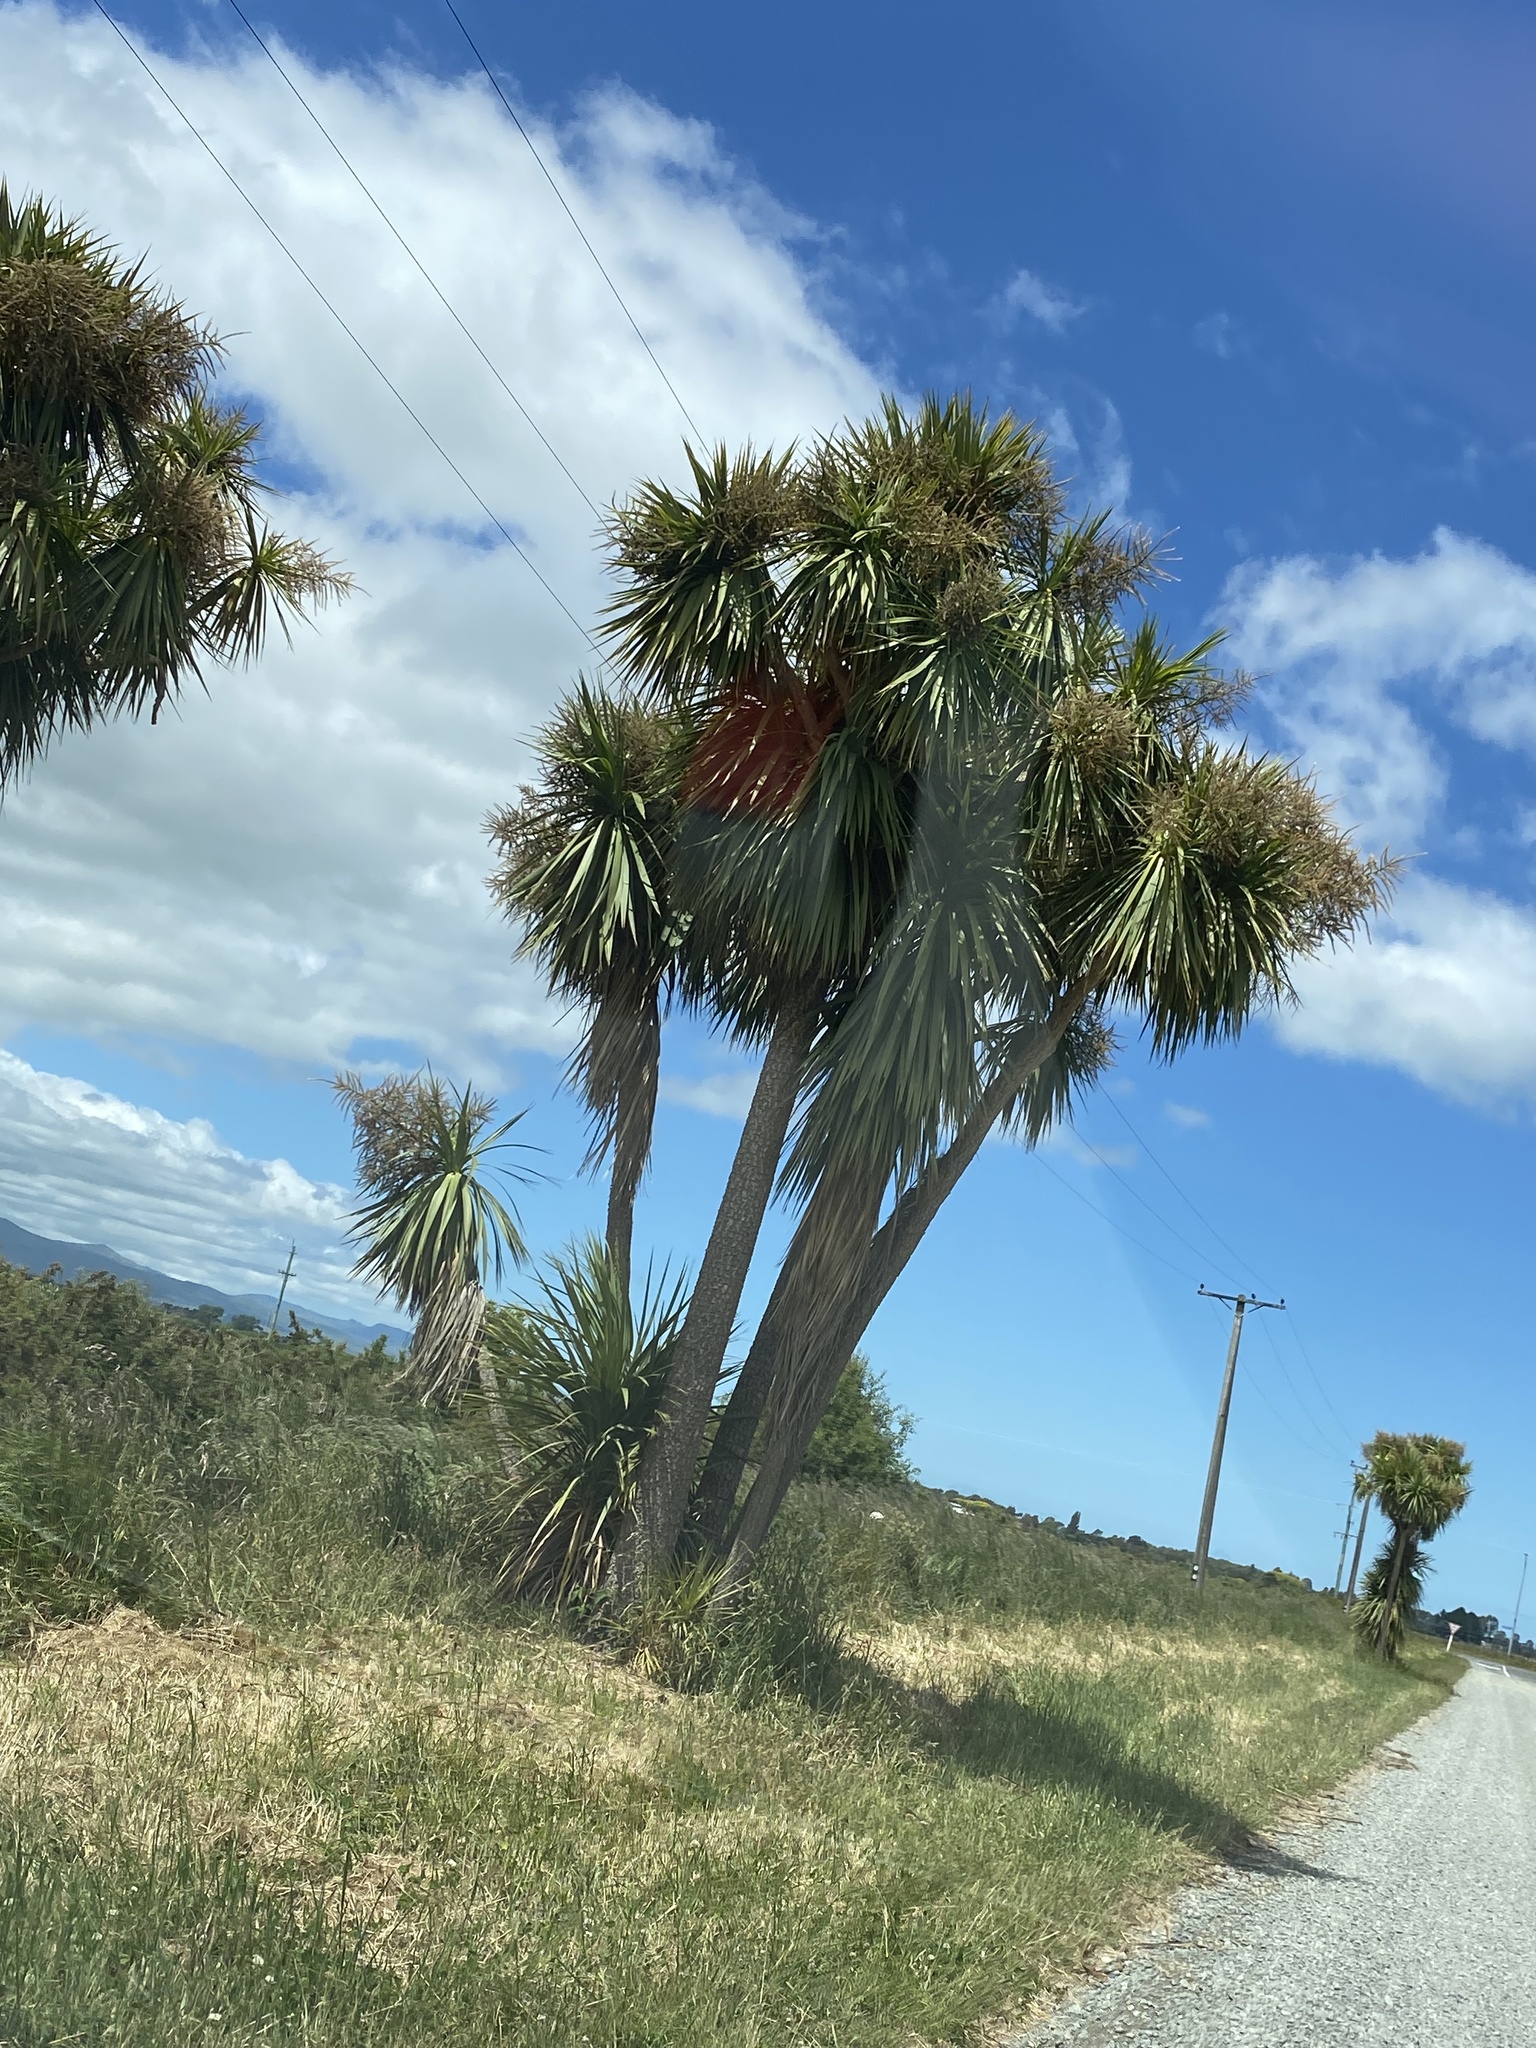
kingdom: Plantae
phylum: Tracheophyta
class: Liliopsida
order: Asparagales
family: Asparagaceae
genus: Cordyline
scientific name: Cordyline australis
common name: Cabbage-palm
